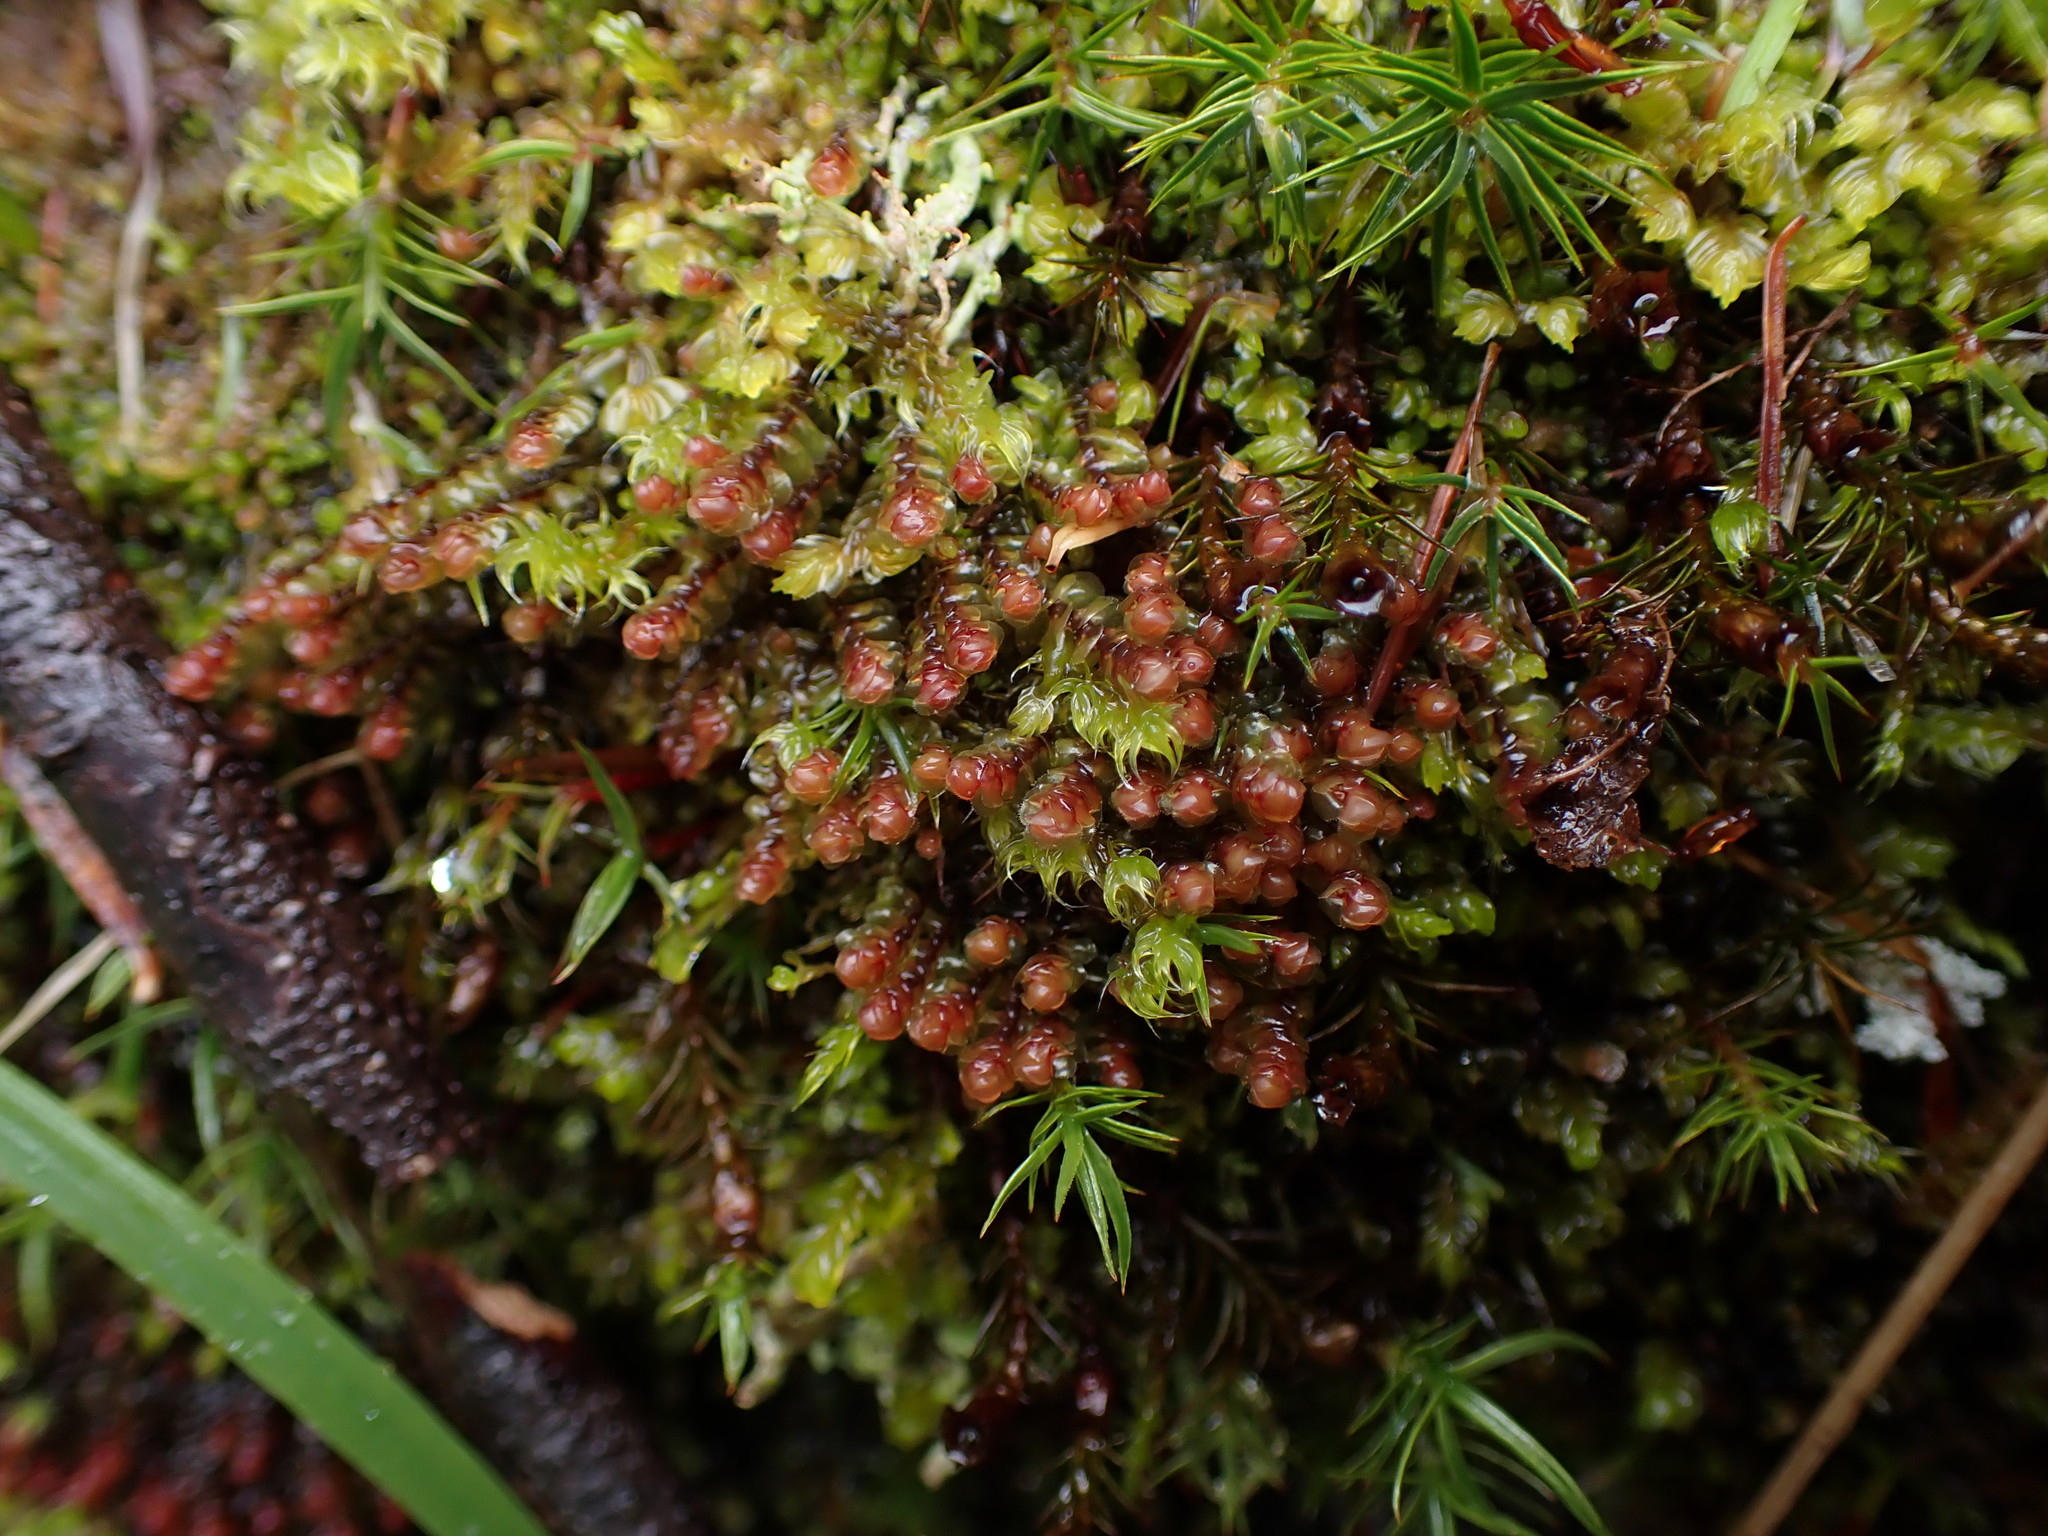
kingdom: Plantae
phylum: Marchantiophyta
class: Jungermanniopsida
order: Jungermanniales
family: Scapaniaceae
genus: Scapania
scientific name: Scapania americana
